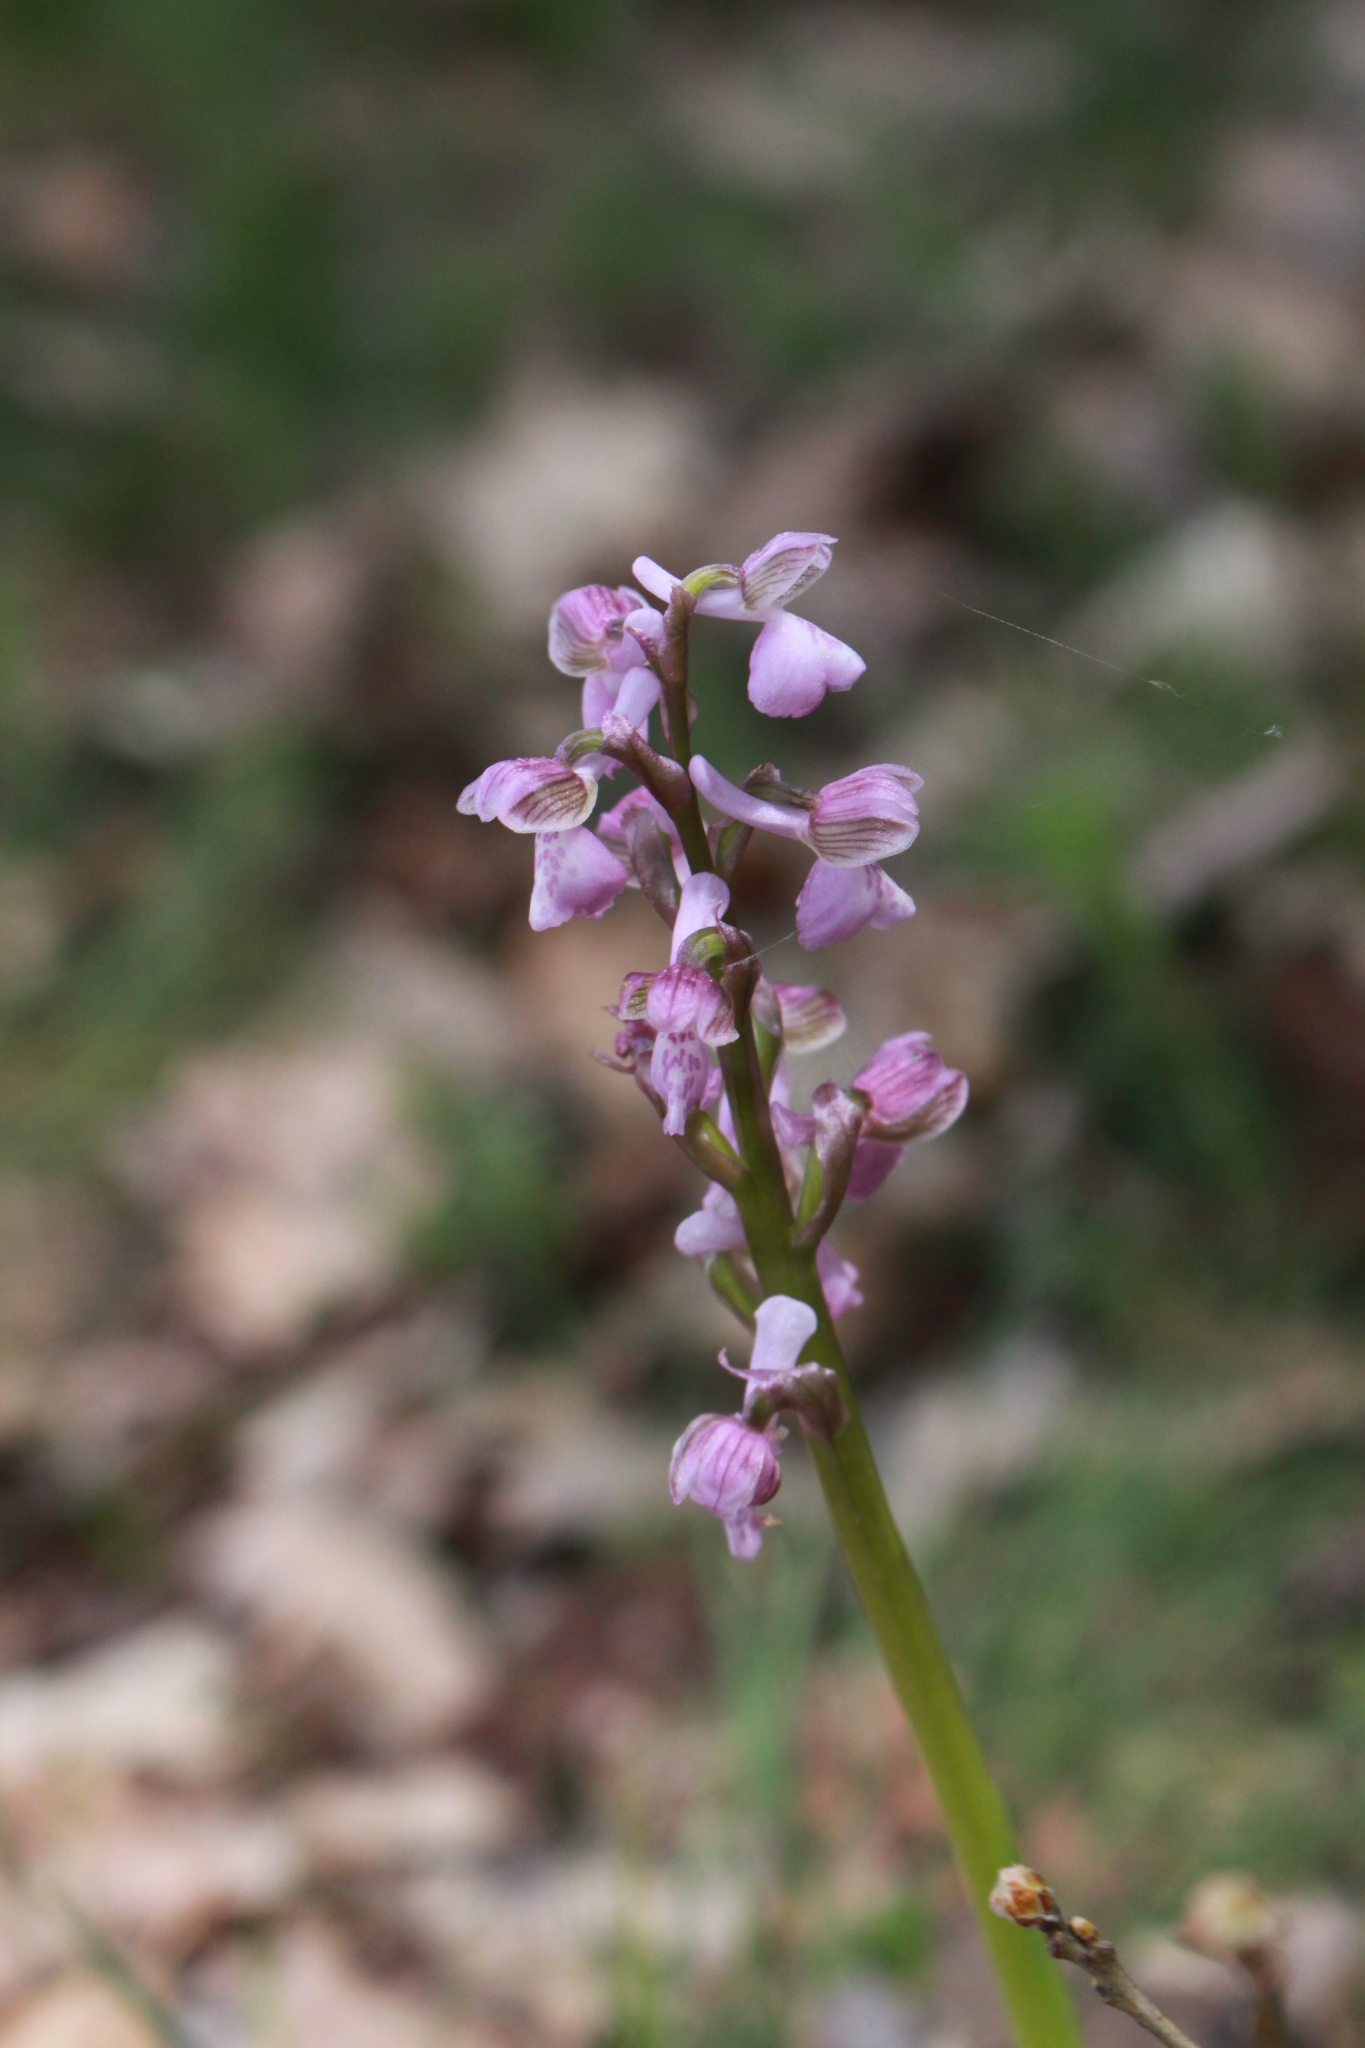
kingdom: Plantae
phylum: Tracheophyta
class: Liliopsida
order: Asparagales
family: Orchidaceae
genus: Anacamptis
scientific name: Anacamptis morio
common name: Green-winged orchid
